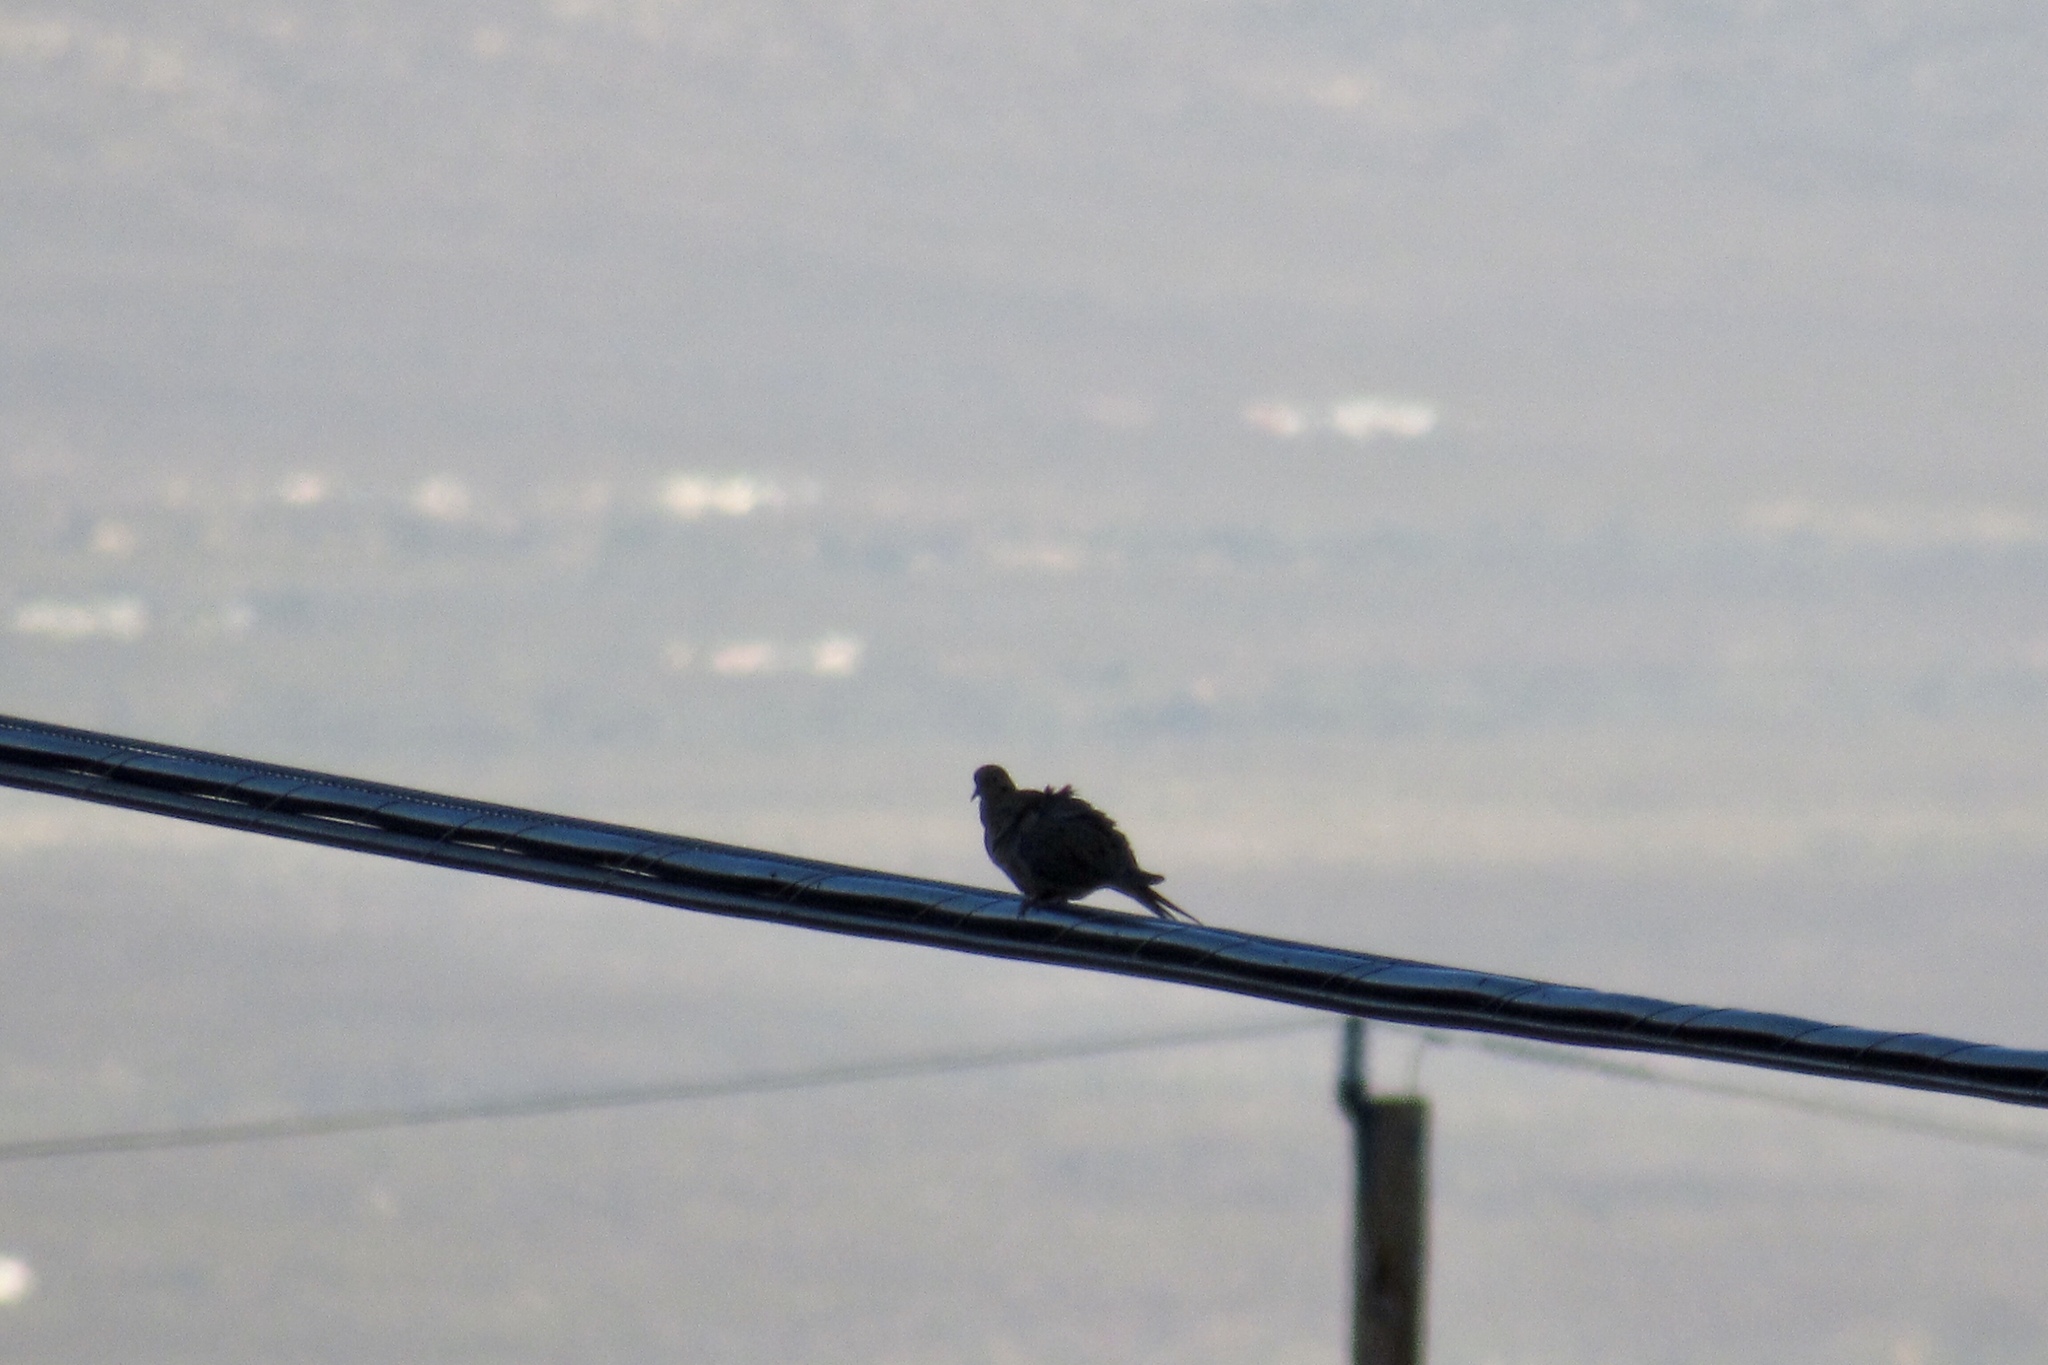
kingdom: Animalia
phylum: Chordata
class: Aves
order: Columbiformes
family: Columbidae
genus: Zenaida
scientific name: Zenaida macroura
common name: Mourning dove
